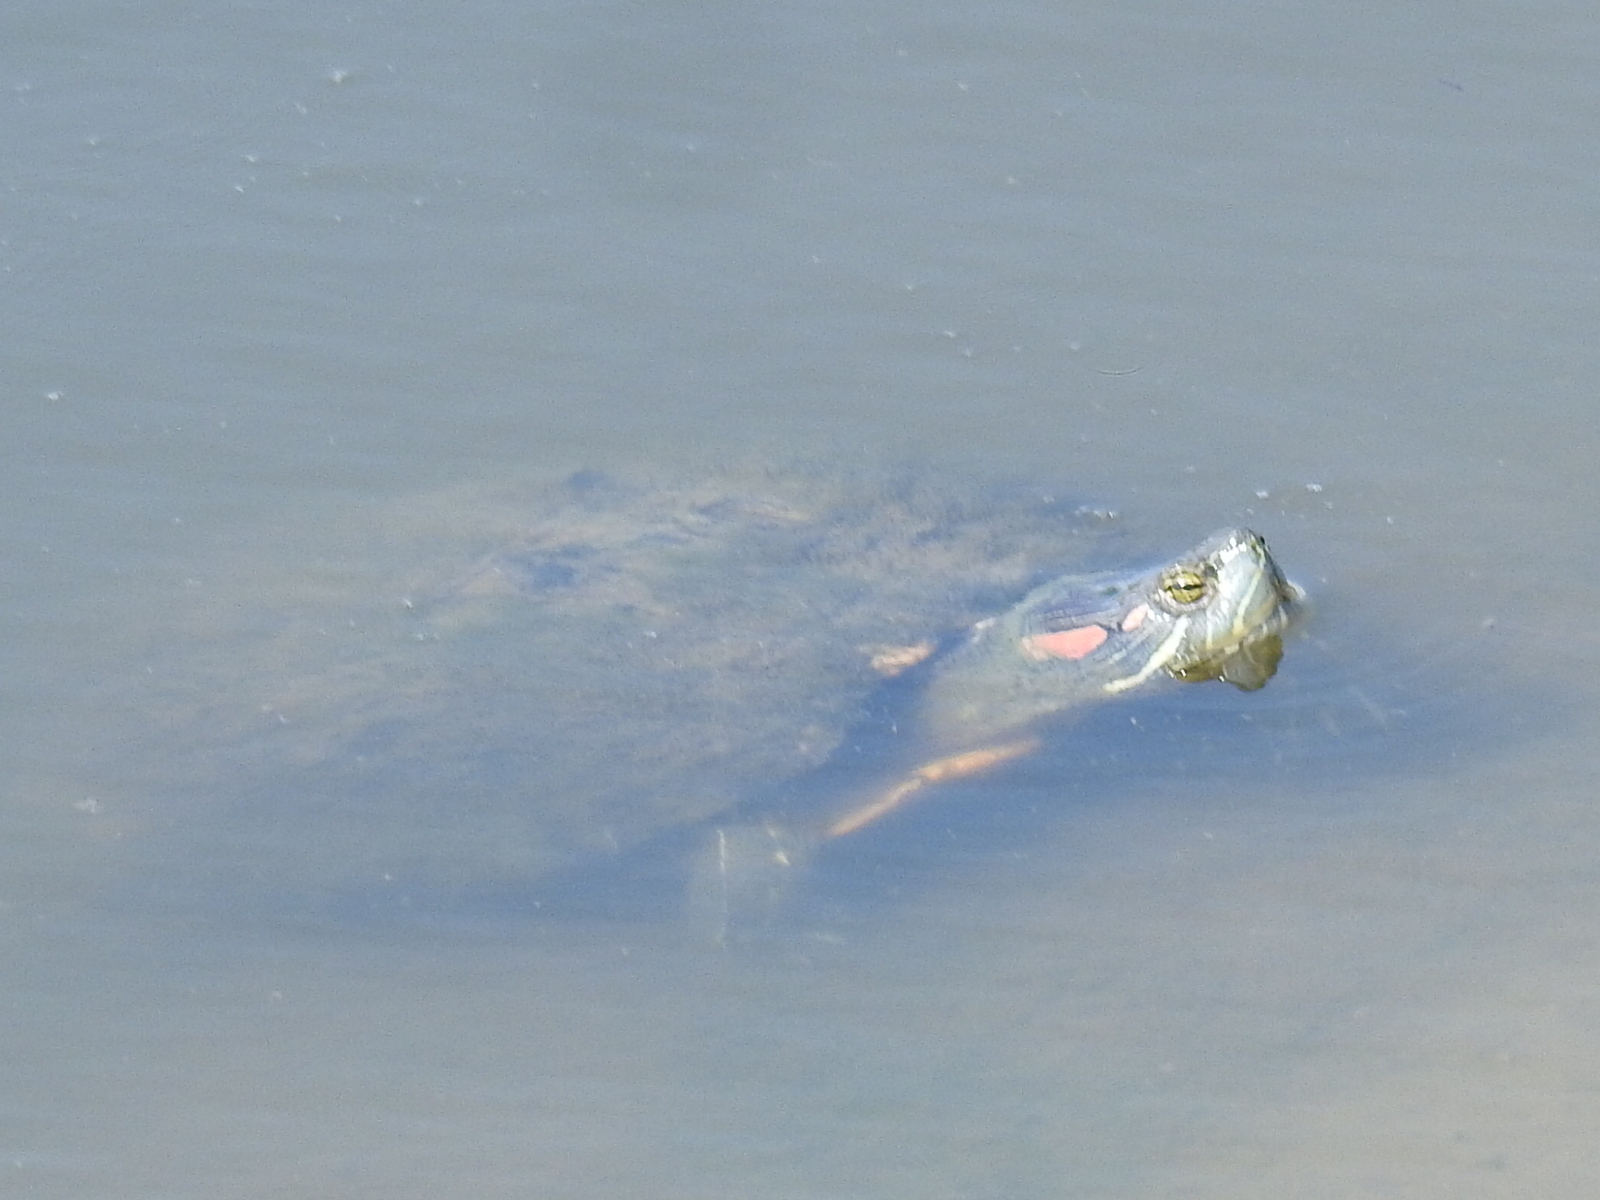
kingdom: Animalia
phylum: Chordata
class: Testudines
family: Emydidae
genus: Trachemys
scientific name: Trachemys scripta
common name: Slider
